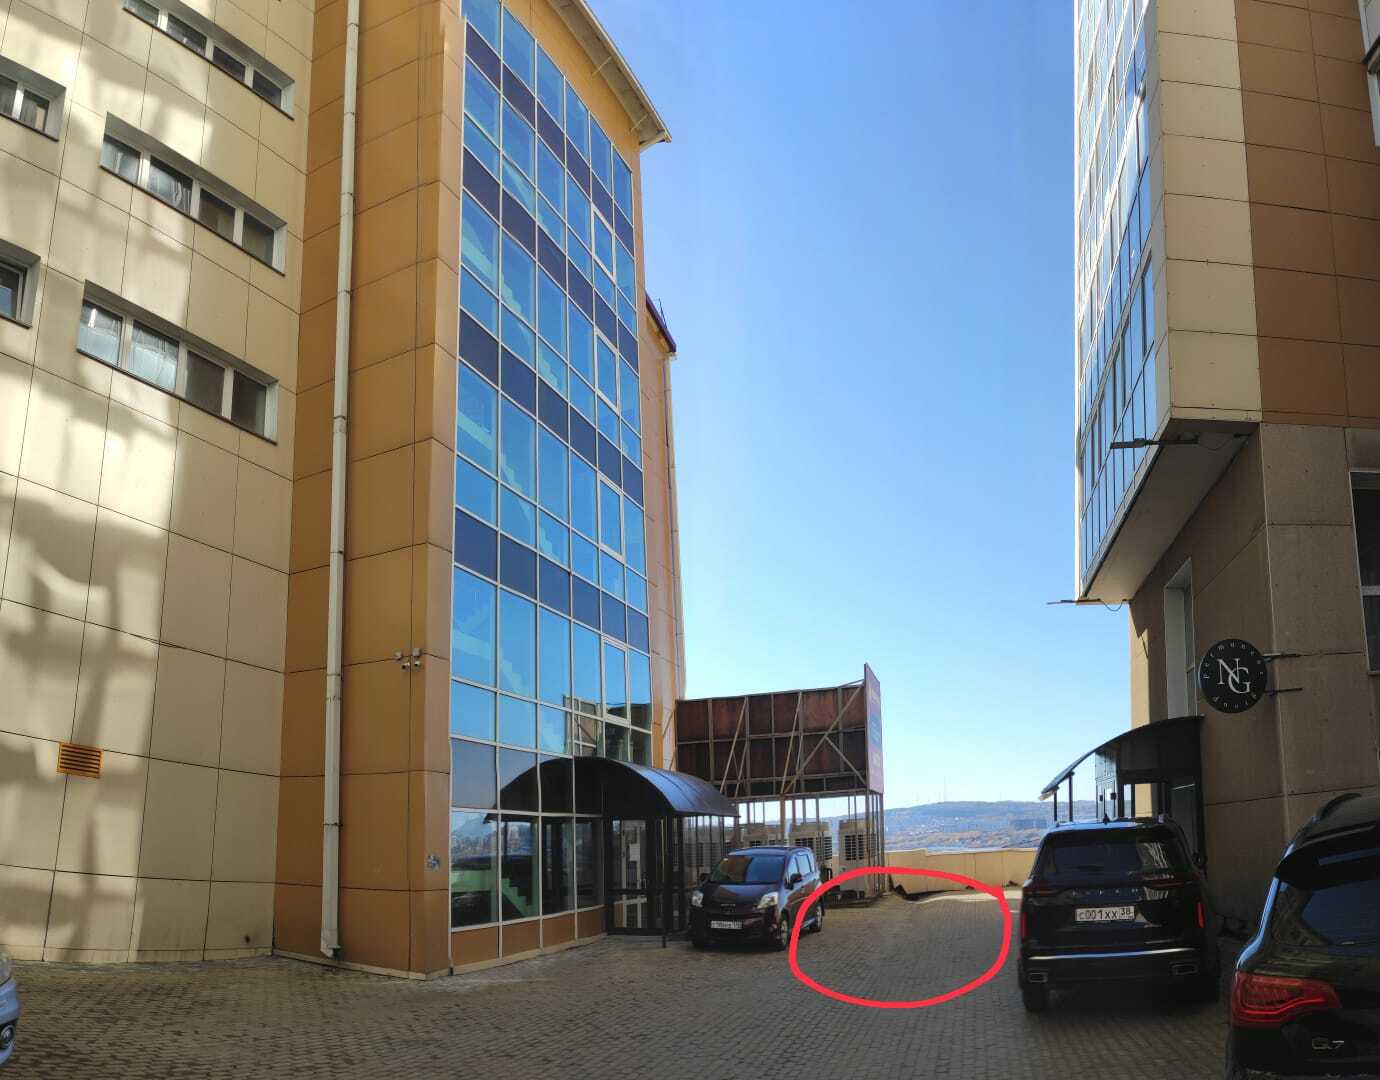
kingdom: Animalia
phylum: Chordata
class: Aves
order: Passeriformes
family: Sittidae
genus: Sitta
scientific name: Sitta europaea
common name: Eurasian nuthatch
